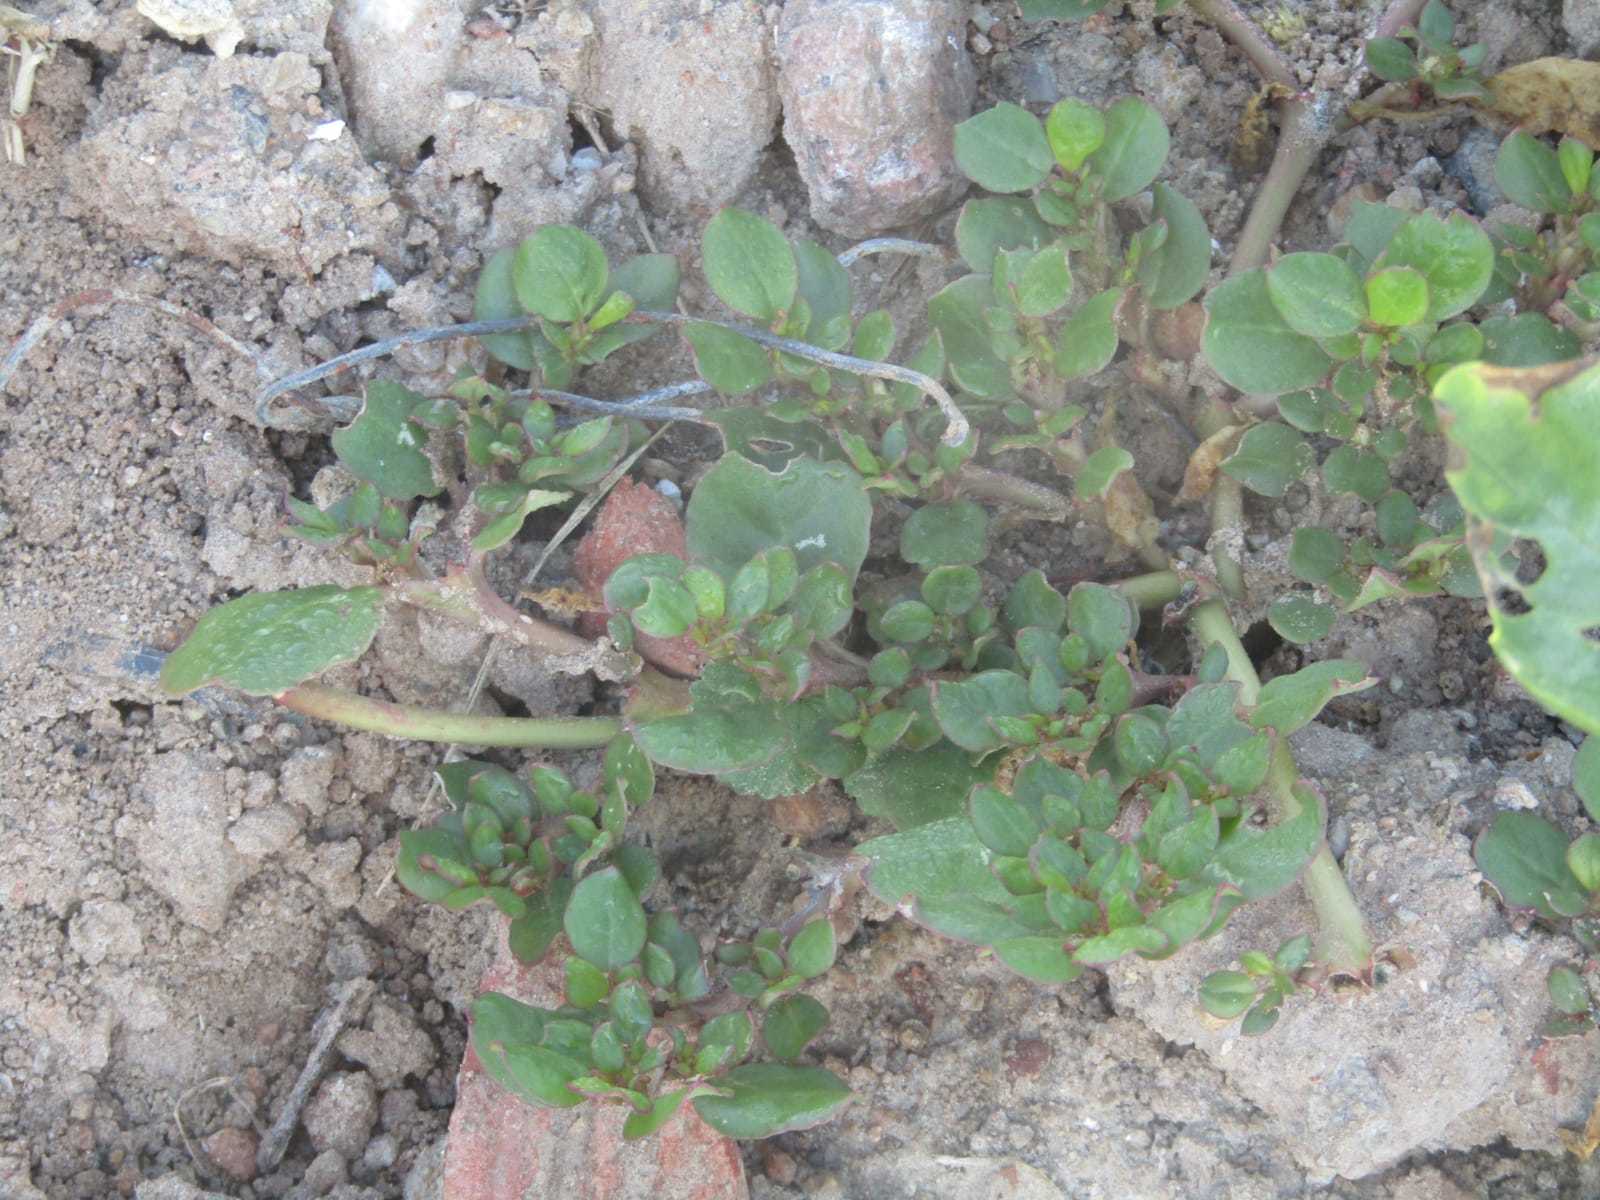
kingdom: Plantae
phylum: Tracheophyta
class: Magnoliopsida
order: Caryophyllales
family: Aizoaceae
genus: Trianthema
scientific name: Trianthema portulacastrum
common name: Desert horsepurslane
